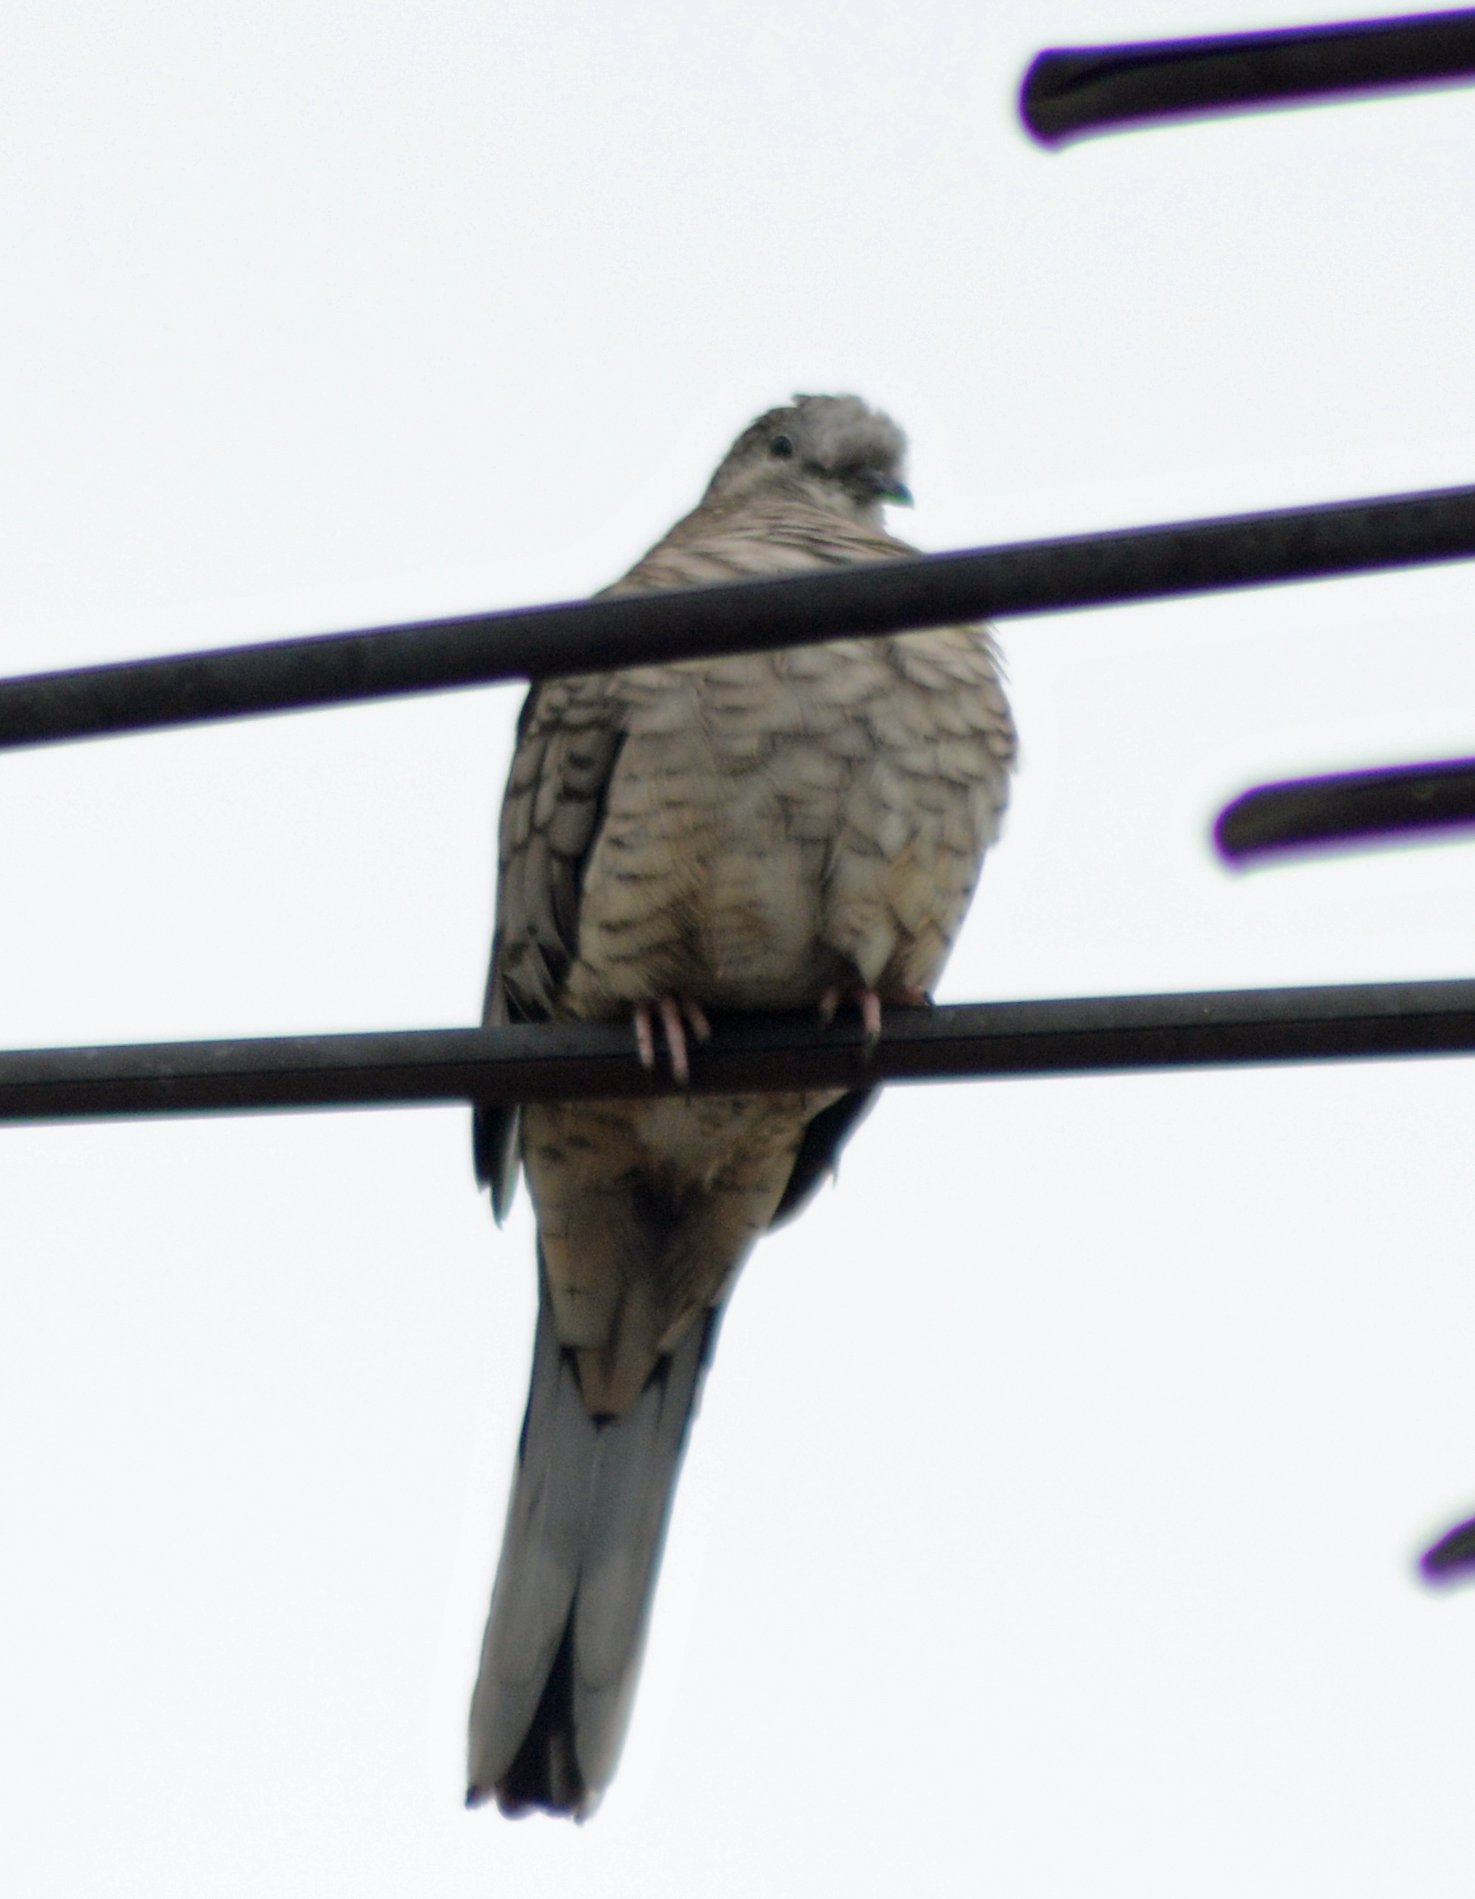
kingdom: Animalia
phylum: Chordata
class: Aves
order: Columbiformes
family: Columbidae
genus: Columbina
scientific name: Columbina inca
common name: Inca dove
